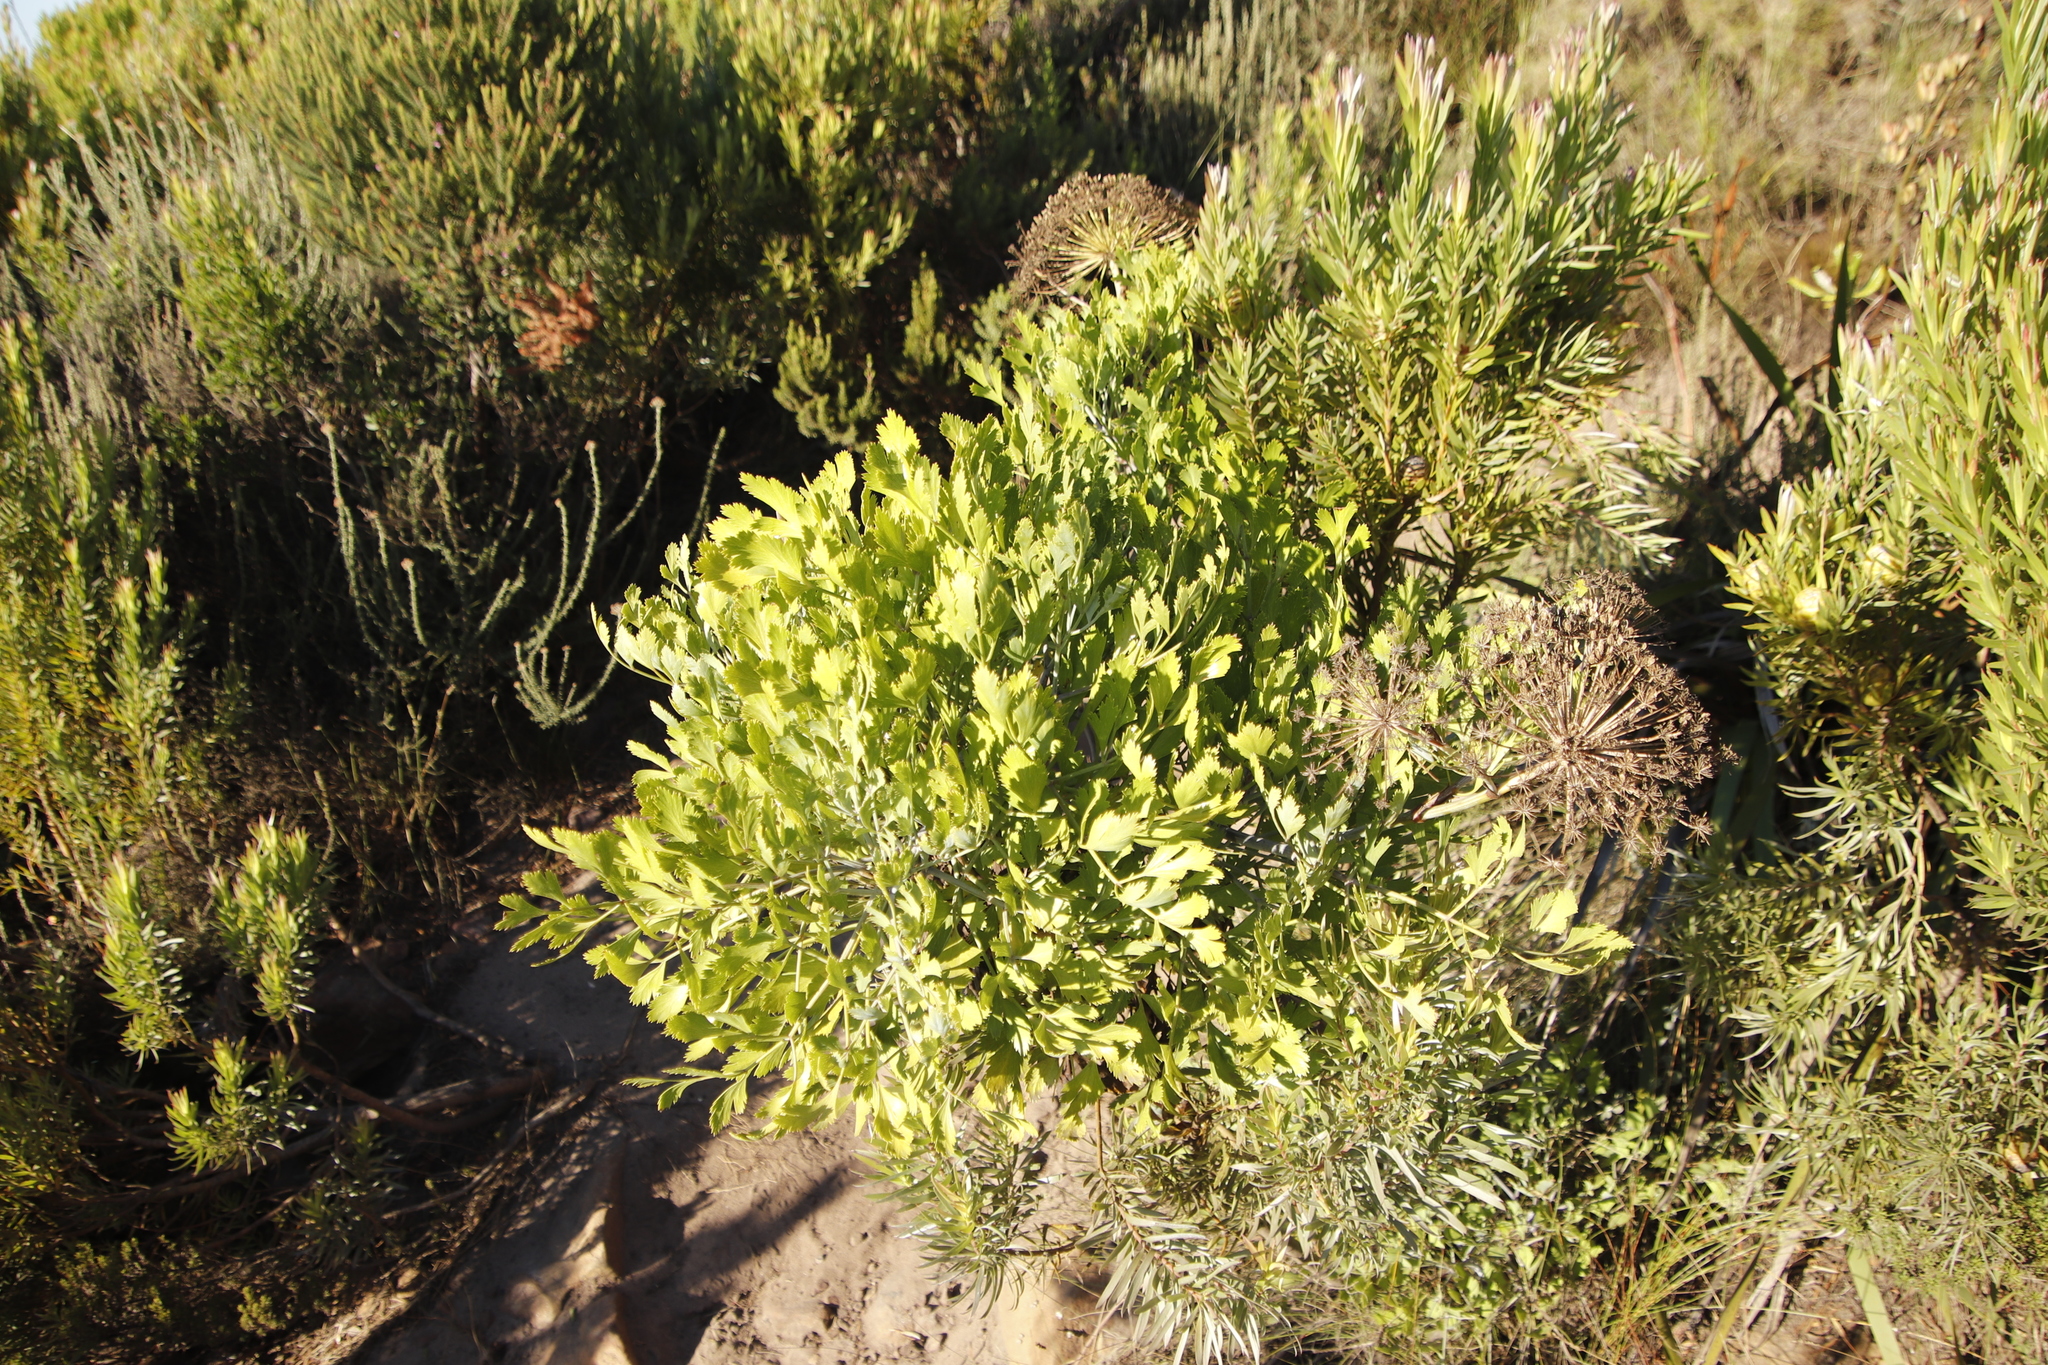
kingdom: Plantae
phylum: Tracheophyta
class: Magnoliopsida
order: Apiales
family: Apiaceae
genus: Notobubon
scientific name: Notobubon galbanum
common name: Blisterbush
